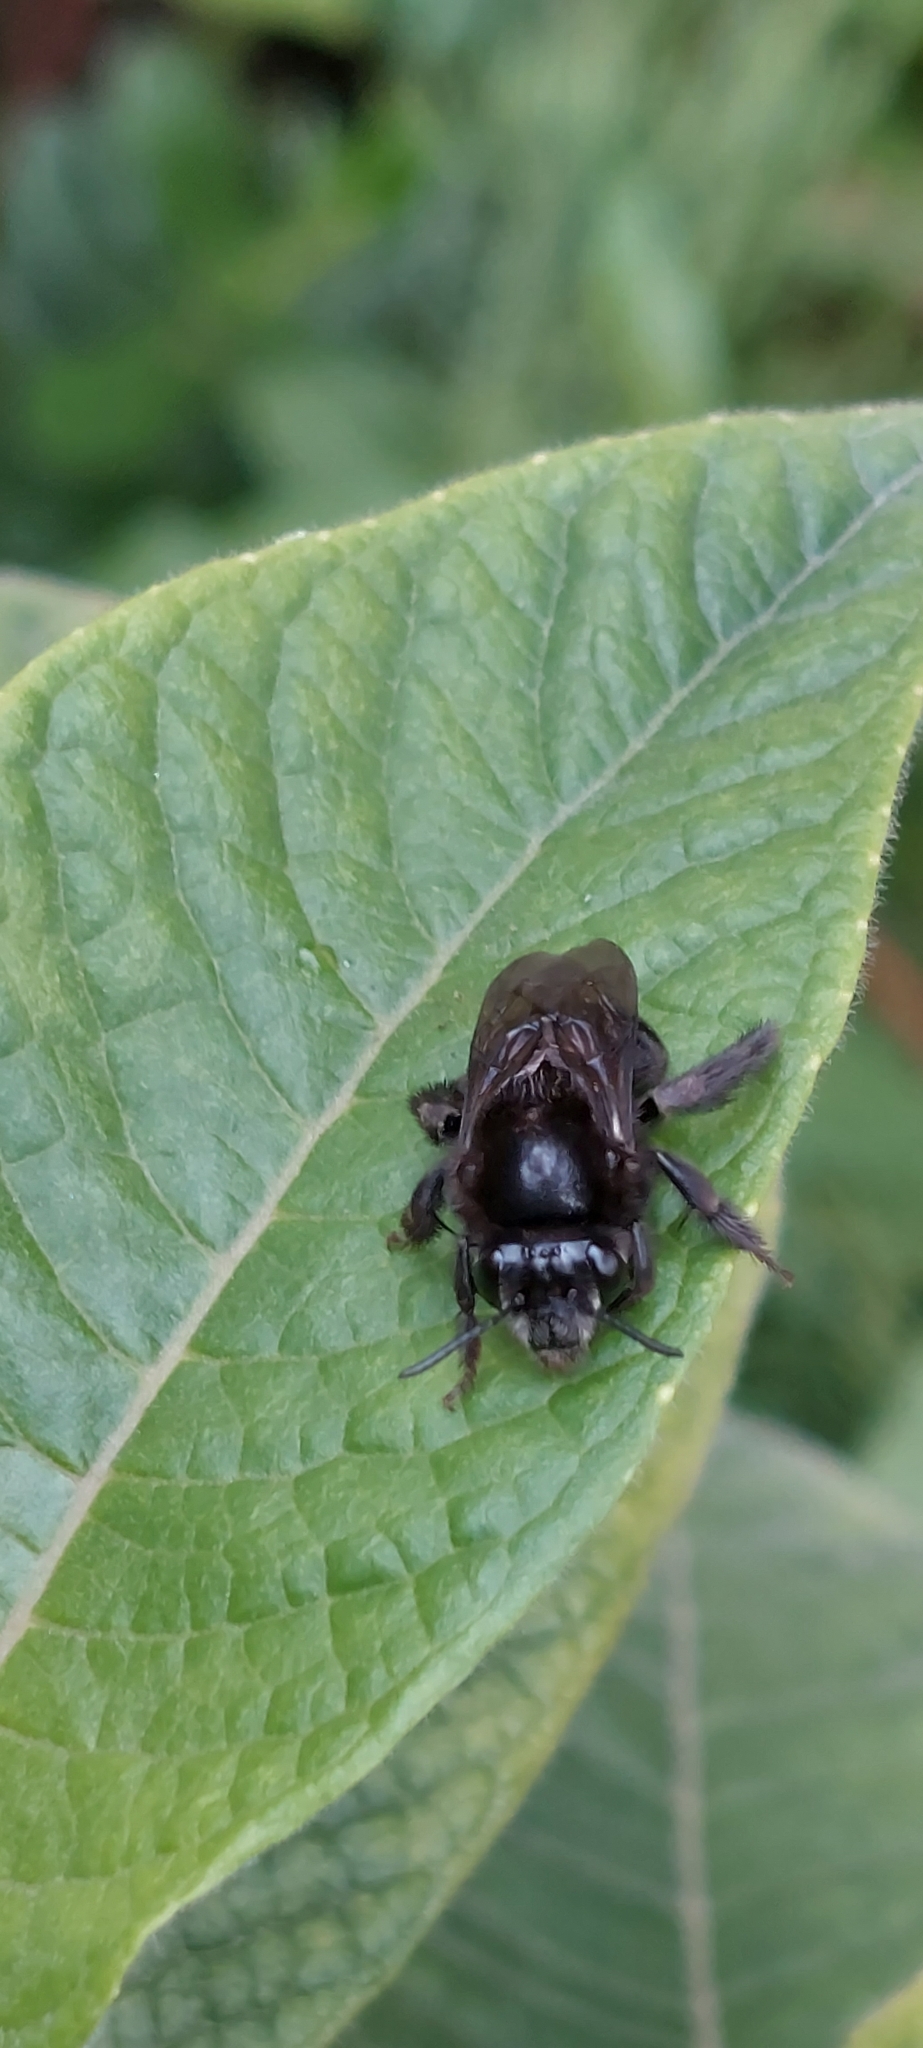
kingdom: Animalia
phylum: Arthropoda
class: Insecta
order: Hymenoptera
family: Apidae
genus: Thygater
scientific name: Thygater aethiops
